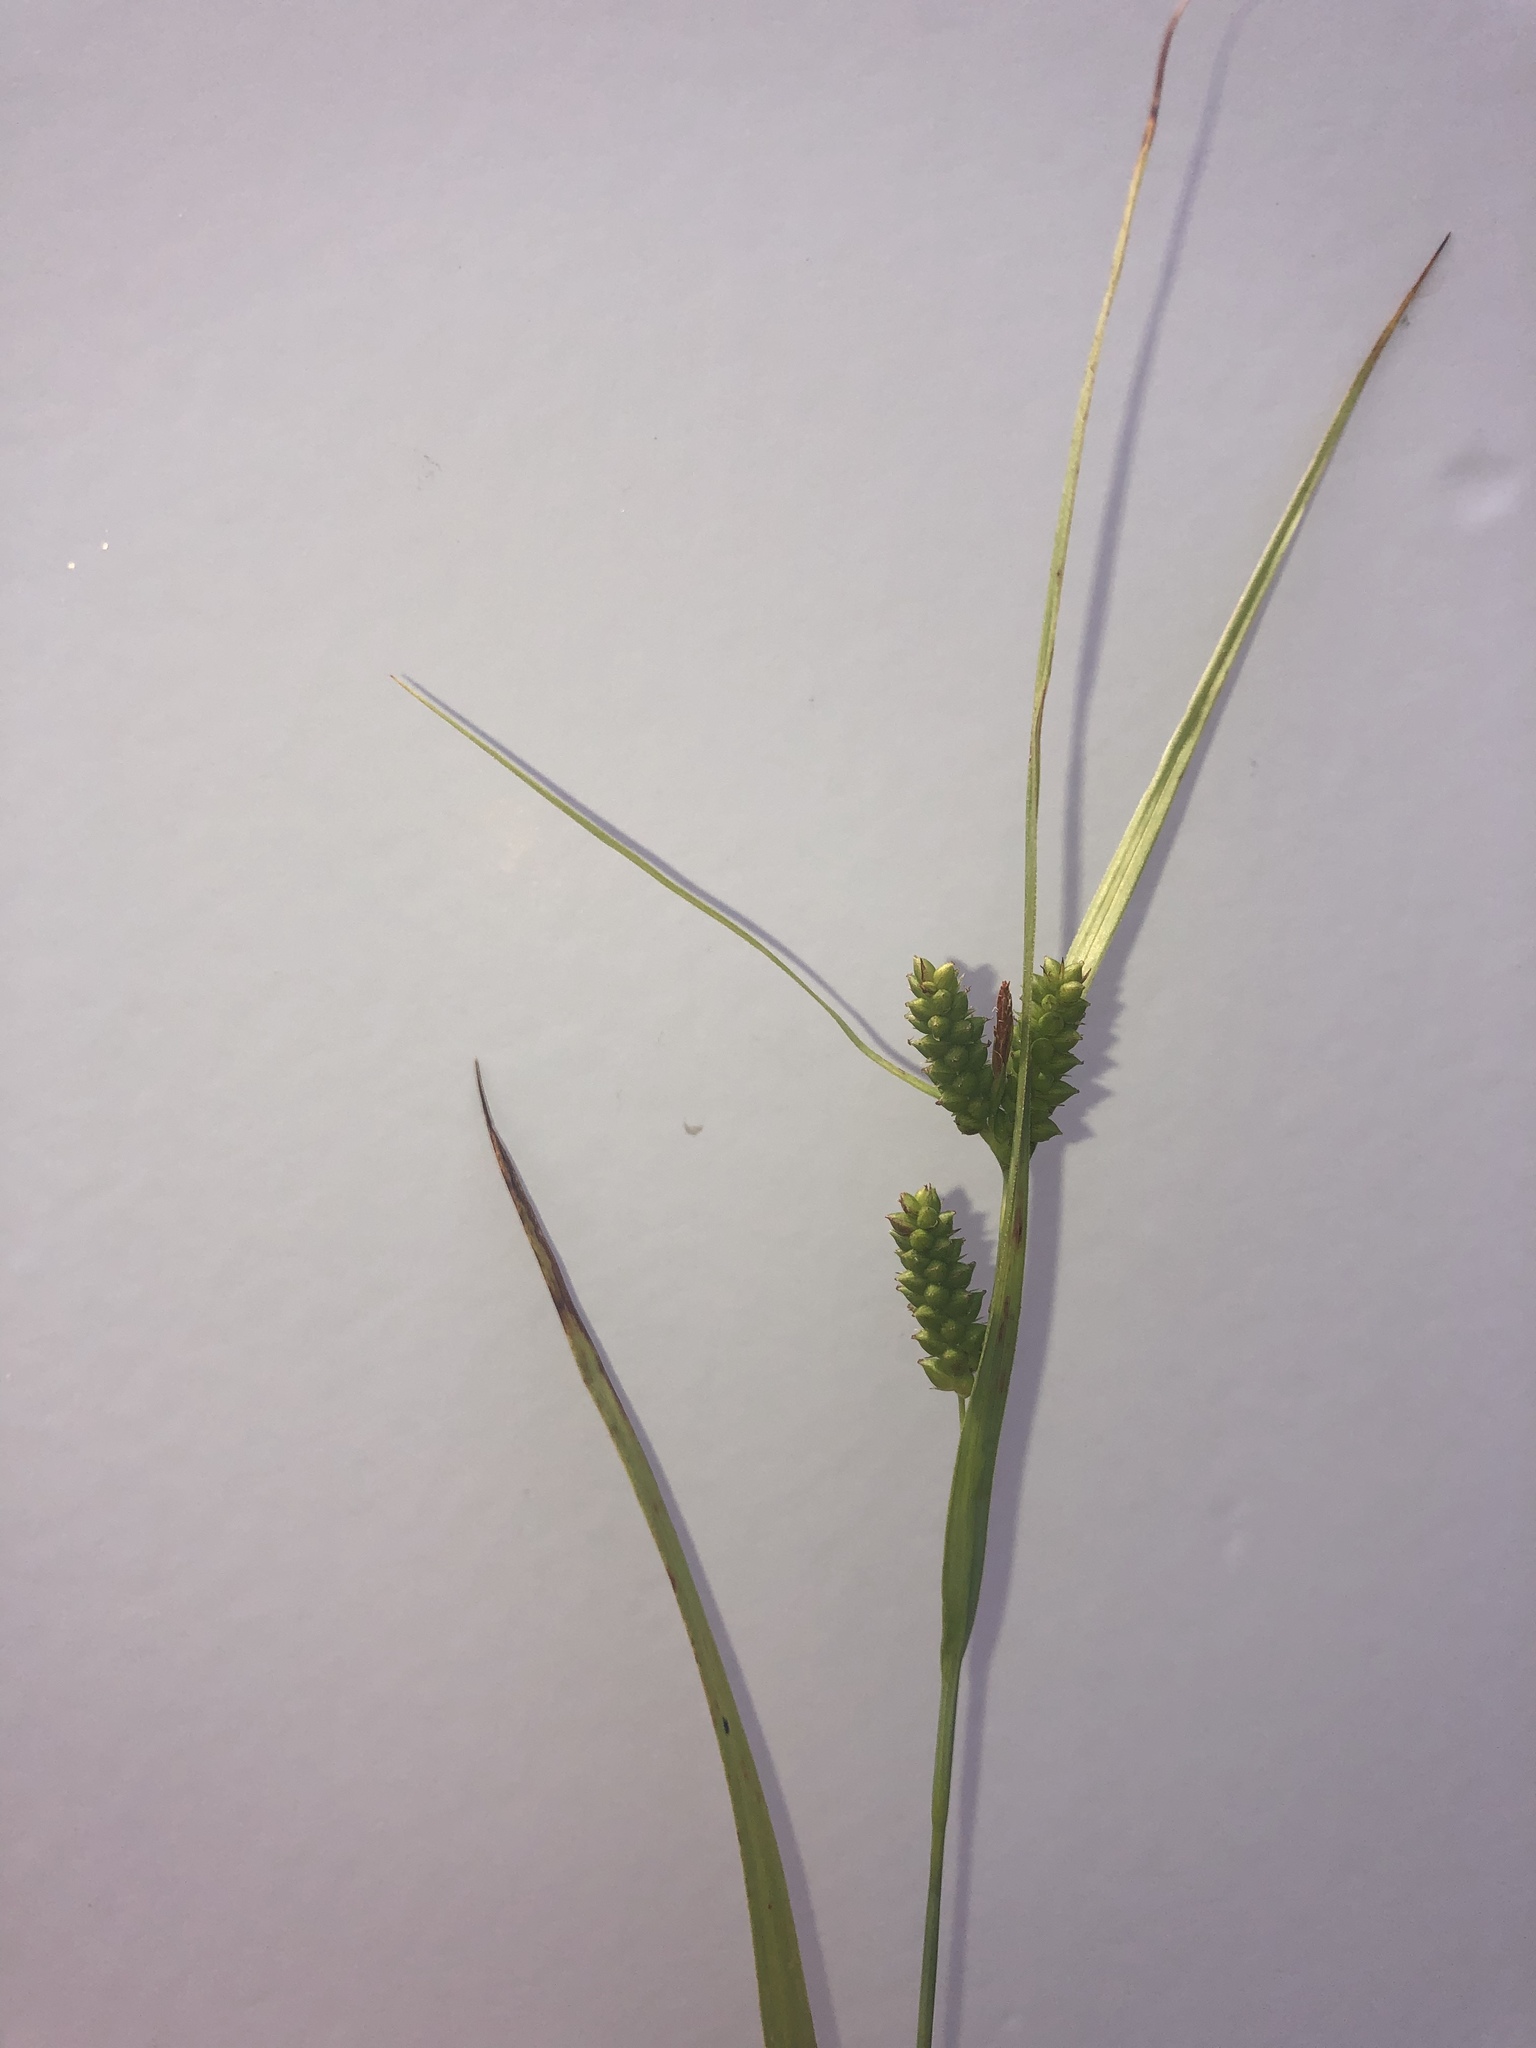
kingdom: Plantae
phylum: Tracheophyta
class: Liliopsida
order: Poales
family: Cyperaceae
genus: Carex
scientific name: Carex granularis
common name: Granular sedge
